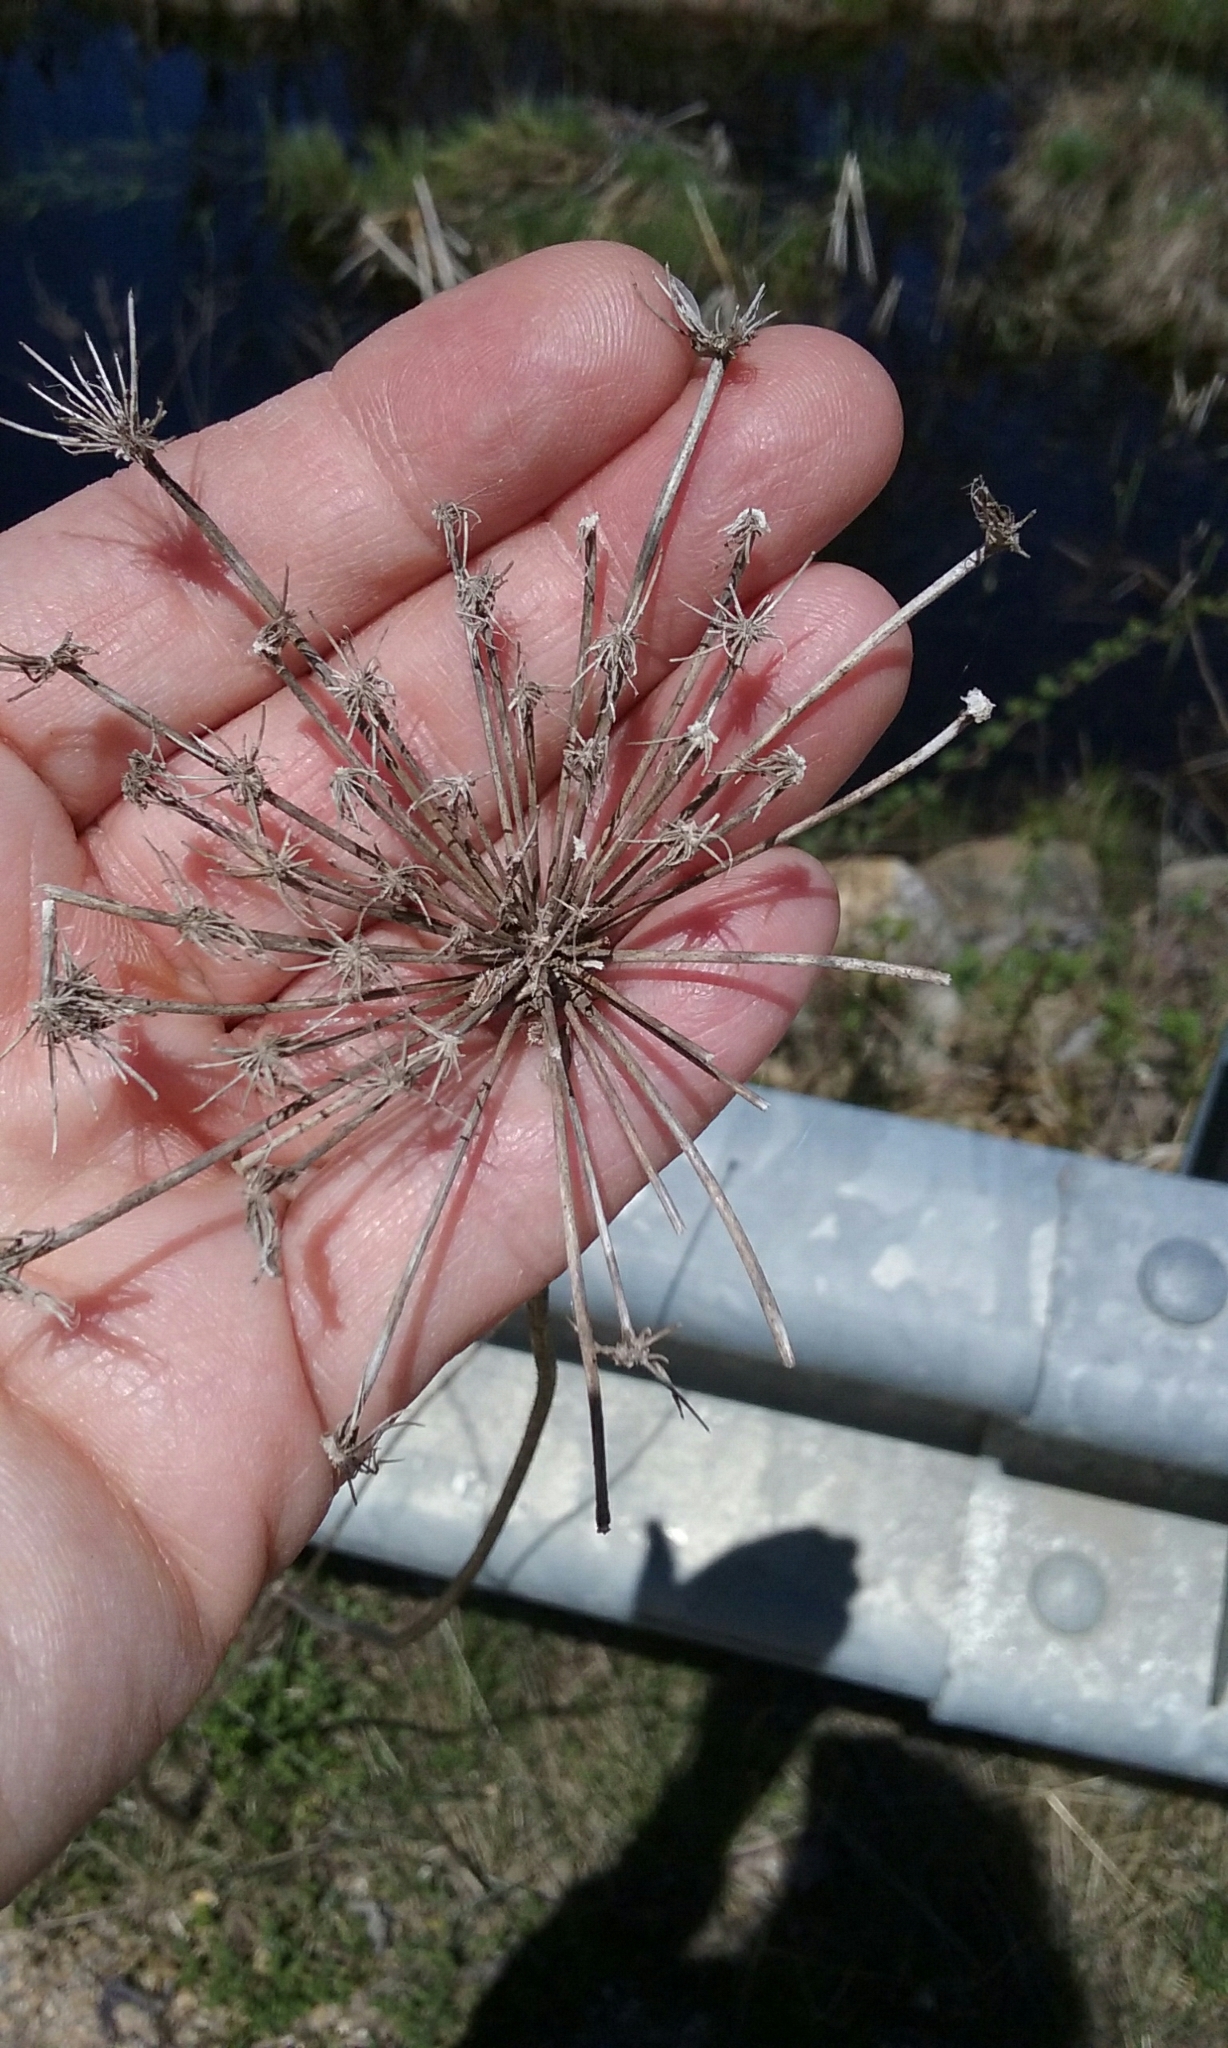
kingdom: Plantae
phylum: Tracheophyta
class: Magnoliopsida
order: Apiales
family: Apiaceae
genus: Daucus
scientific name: Daucus carota
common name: Wild carrot
